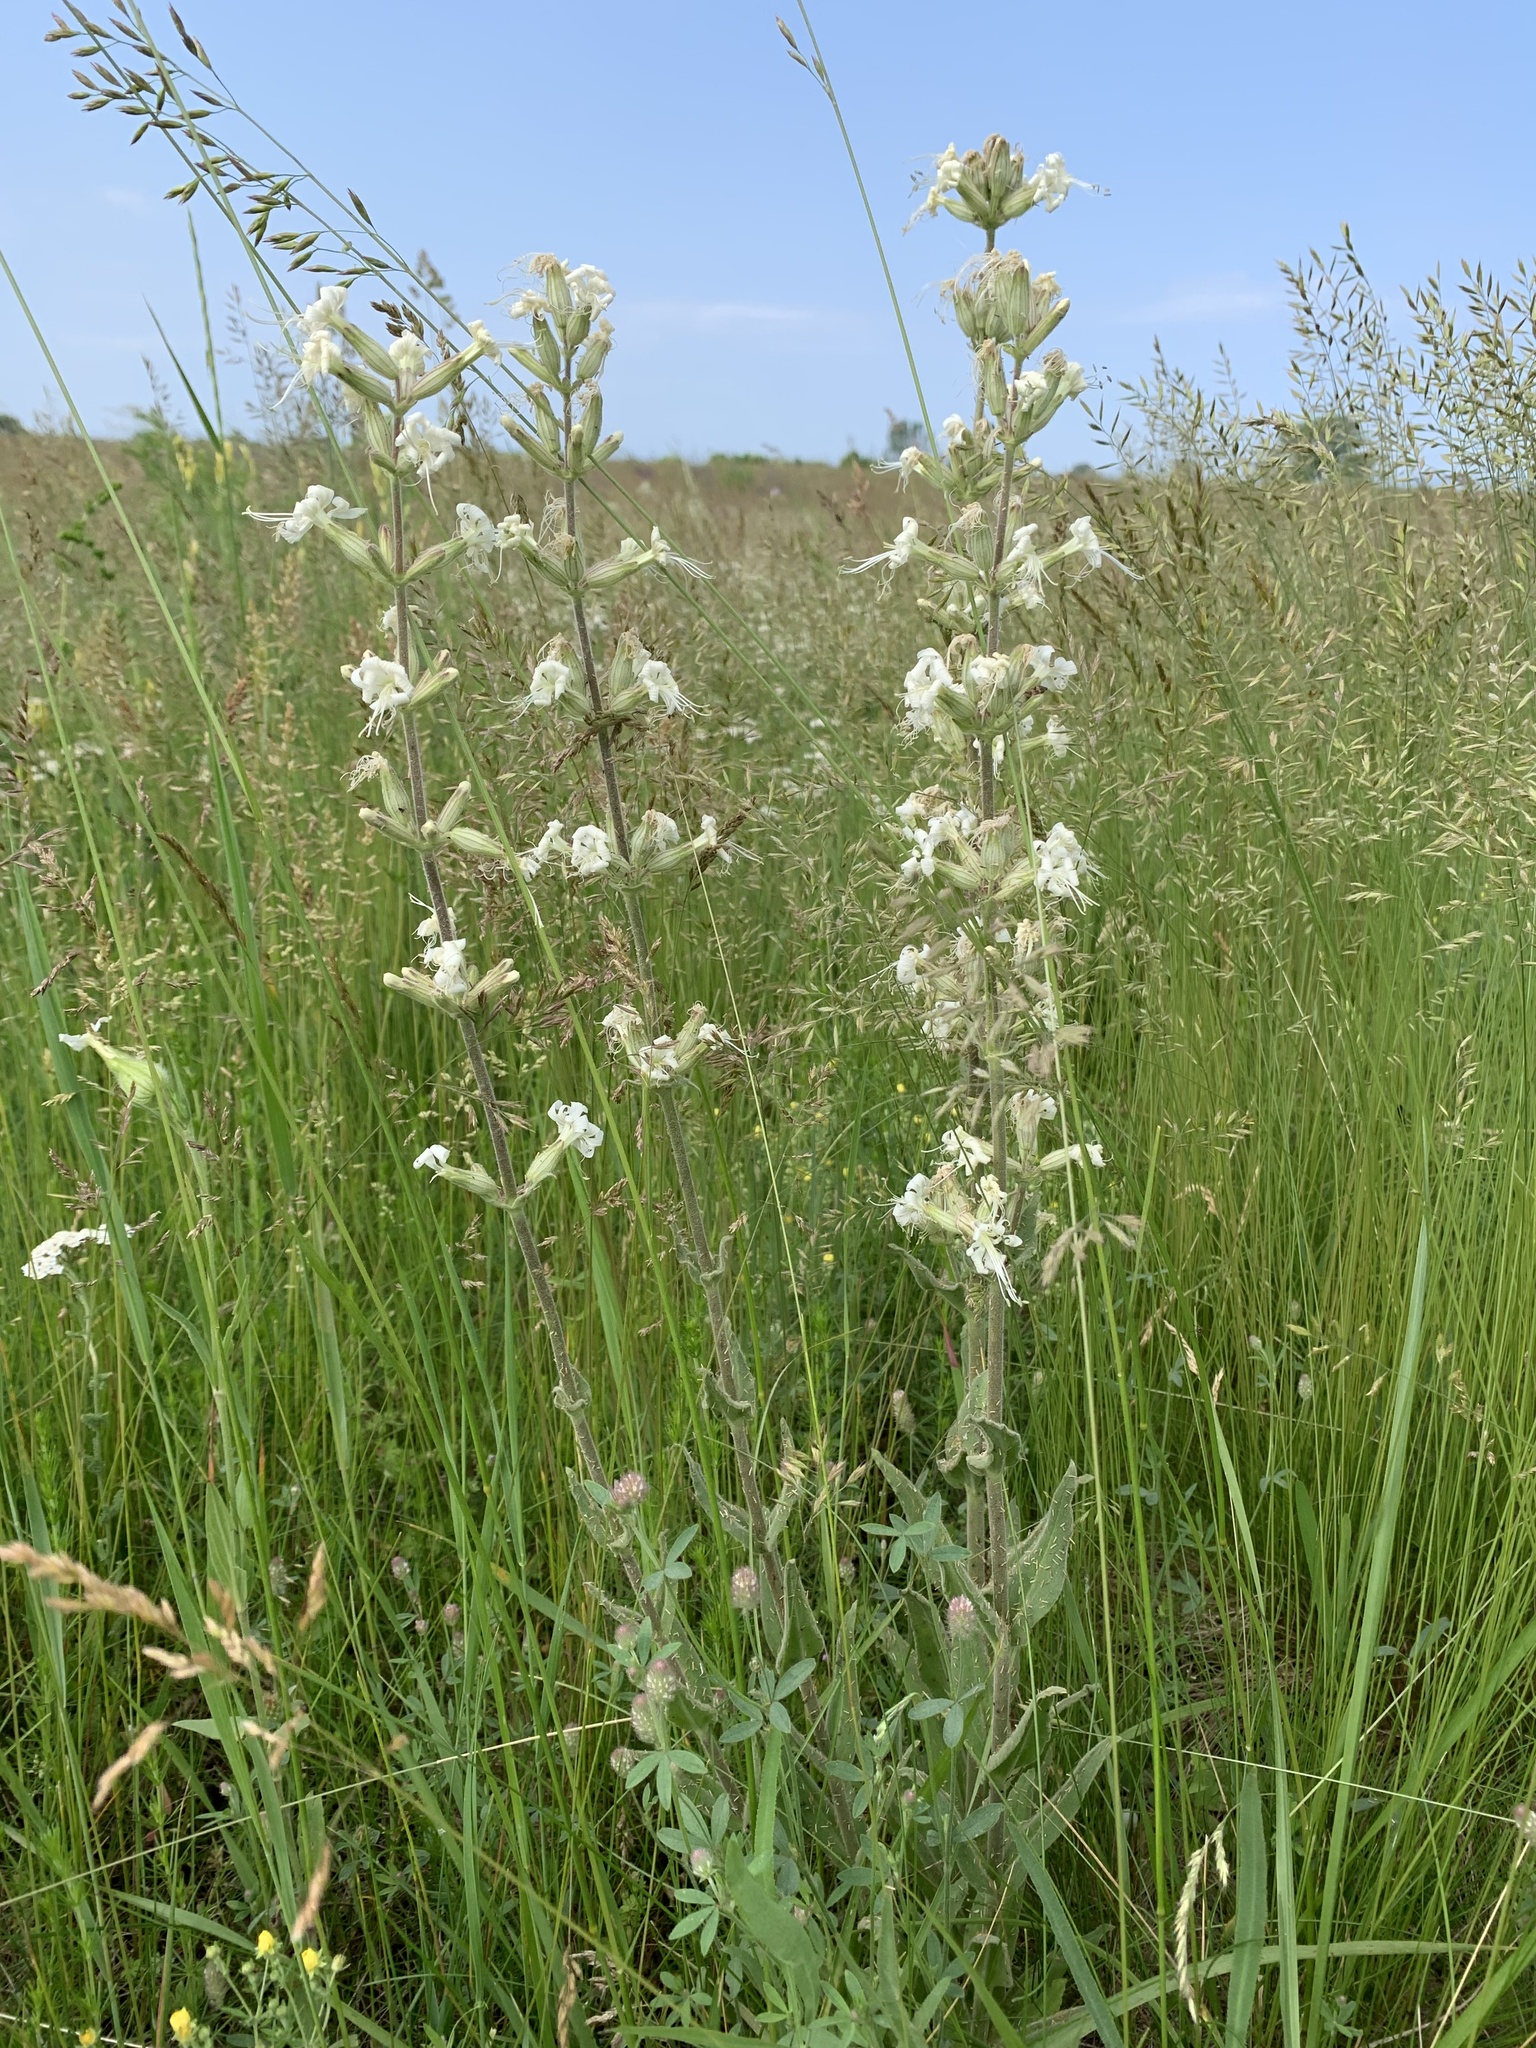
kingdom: Plantae
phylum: Tracheophyta
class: Magnoliopsida
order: Caryophyllales
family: Caryophyllaceae
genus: Silene
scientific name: Silene viscosa
